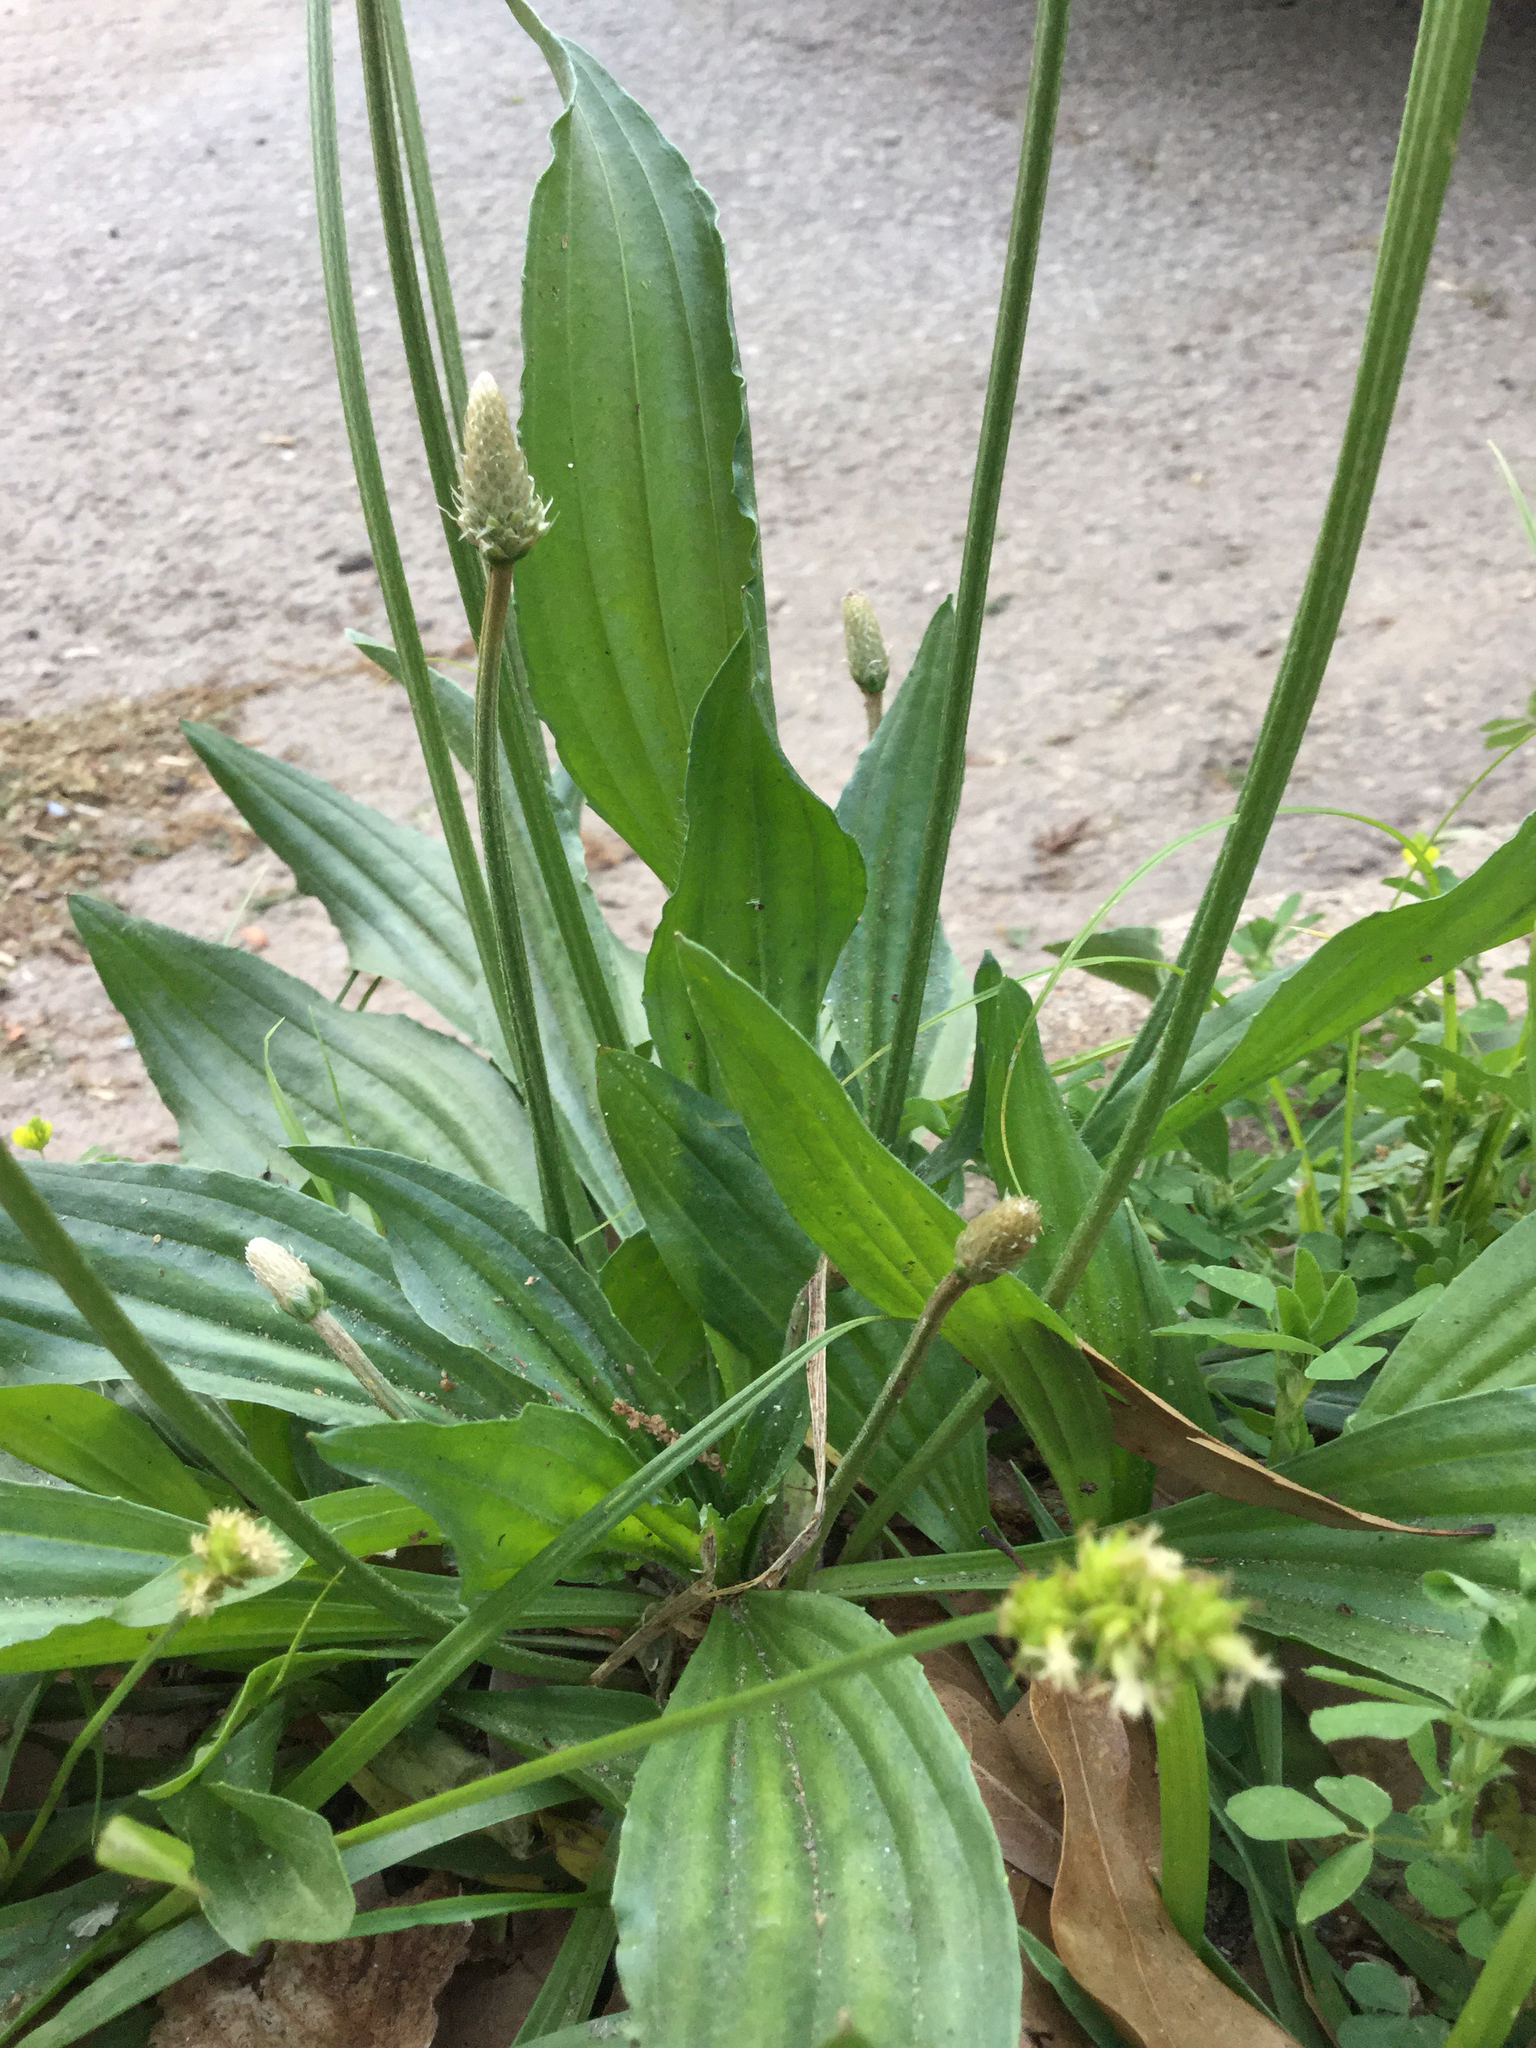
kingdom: Plantae
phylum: Tracheophyta
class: Magnoliopsida
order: Lamiales
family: Plantaginaceae
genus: Plantago
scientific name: Plantago lanceolata
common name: Ribwort plantain
